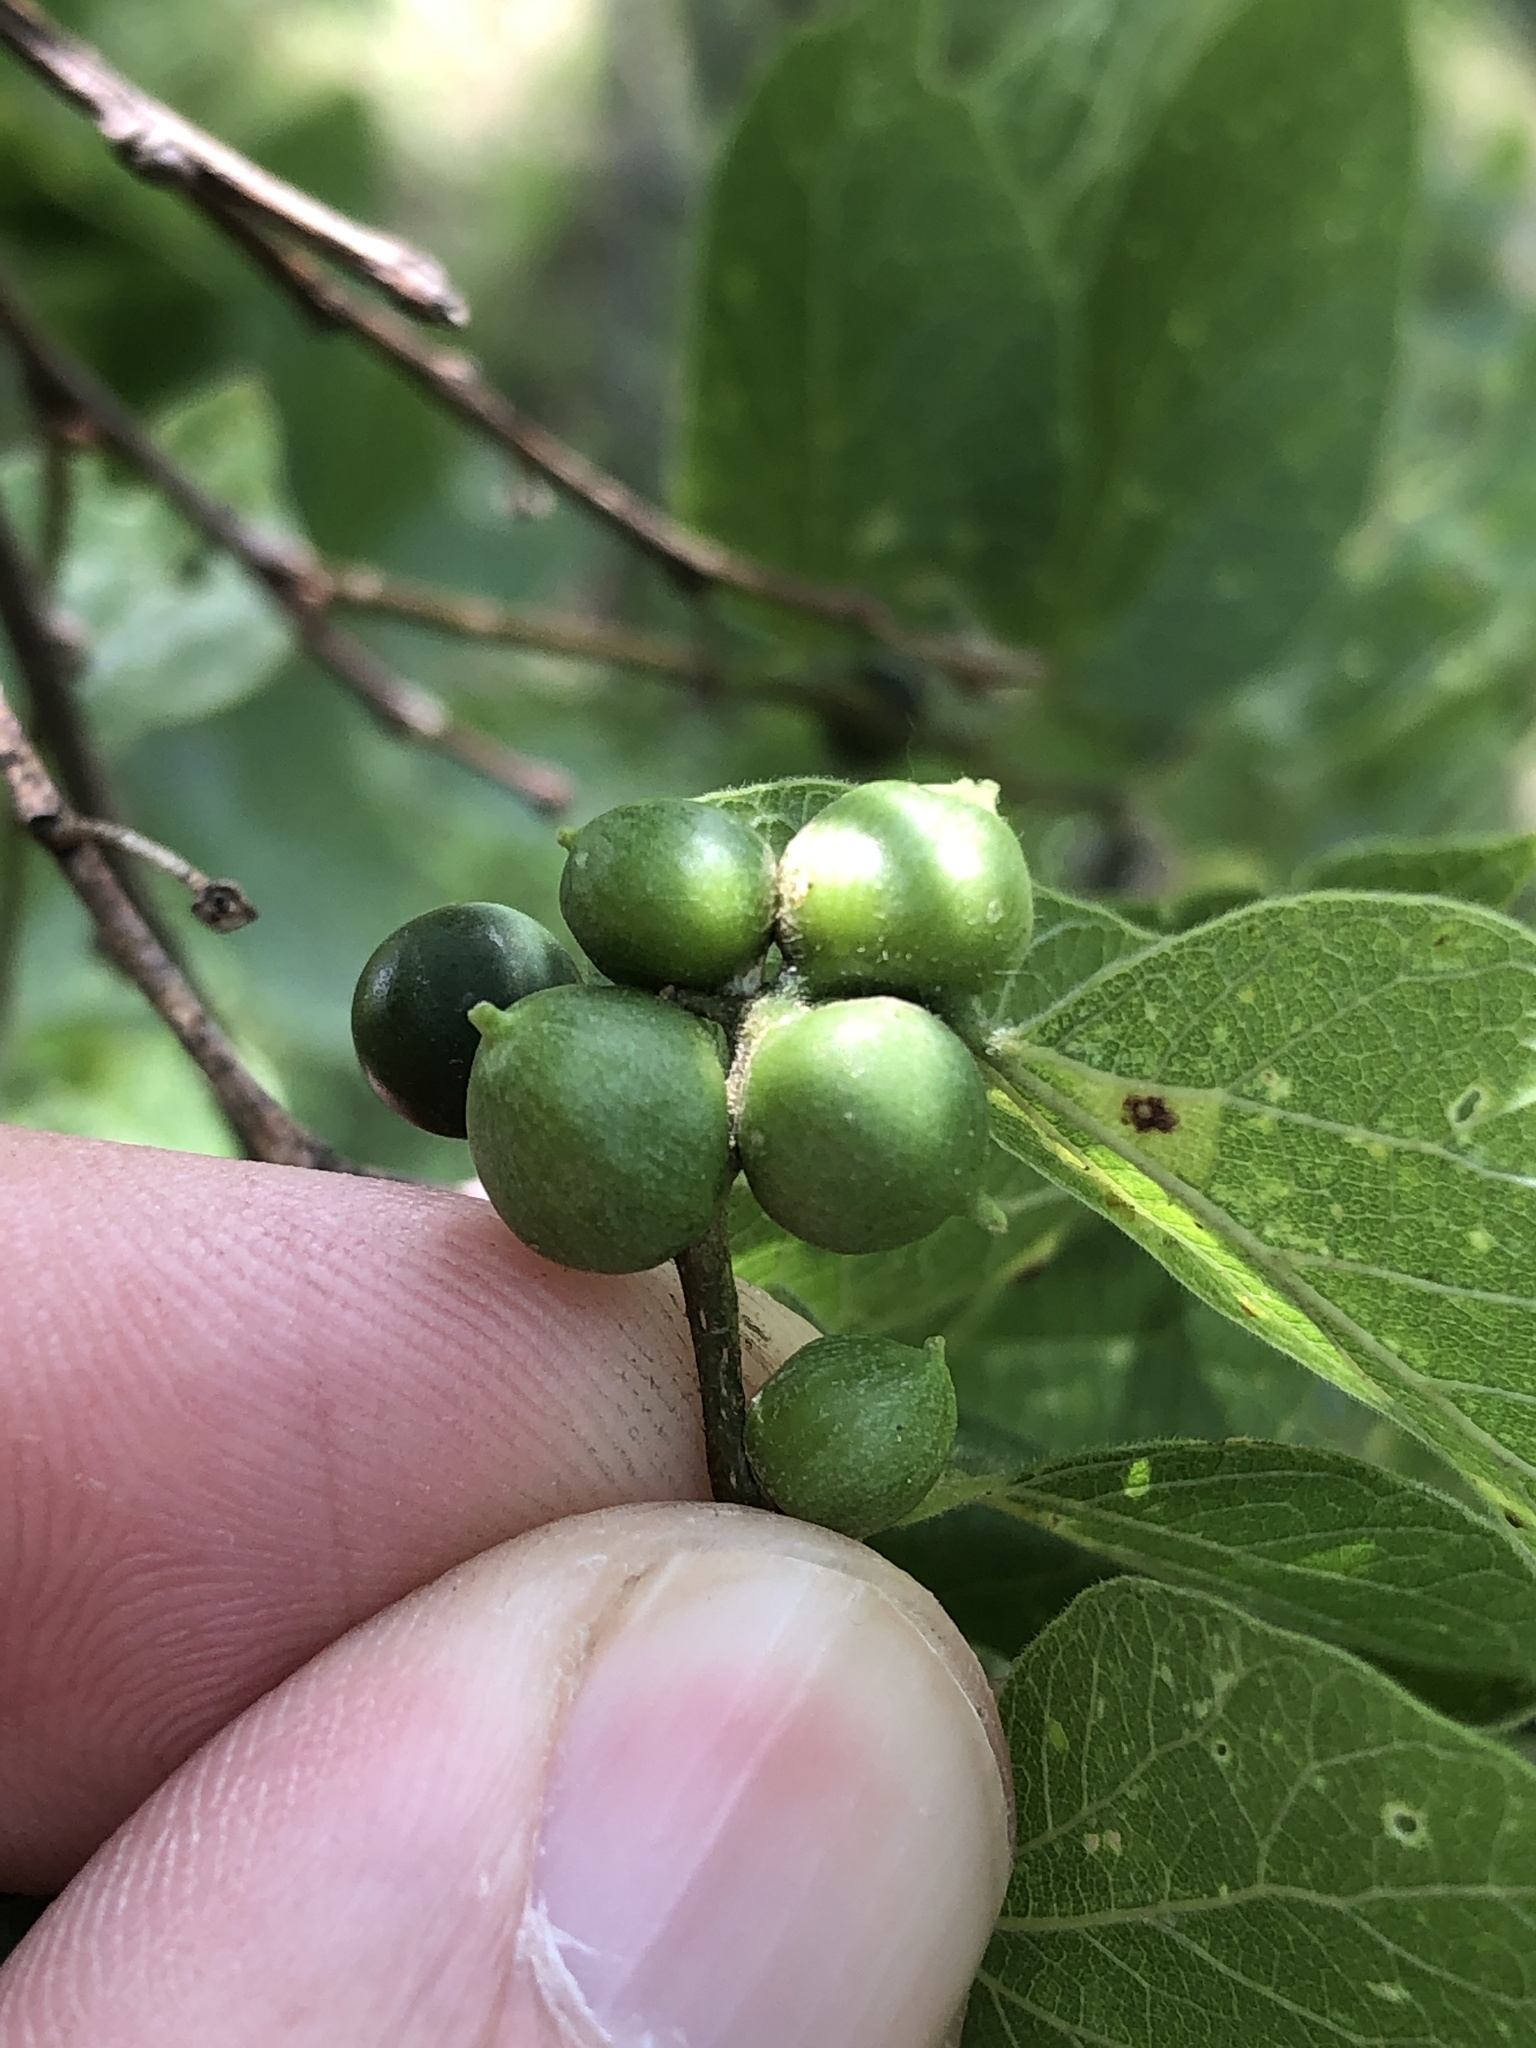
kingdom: Animalia
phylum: Arthropoda
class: Insecta
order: Diptera
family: Cecidomyiidae
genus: Celticecis
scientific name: Celticecis connata
